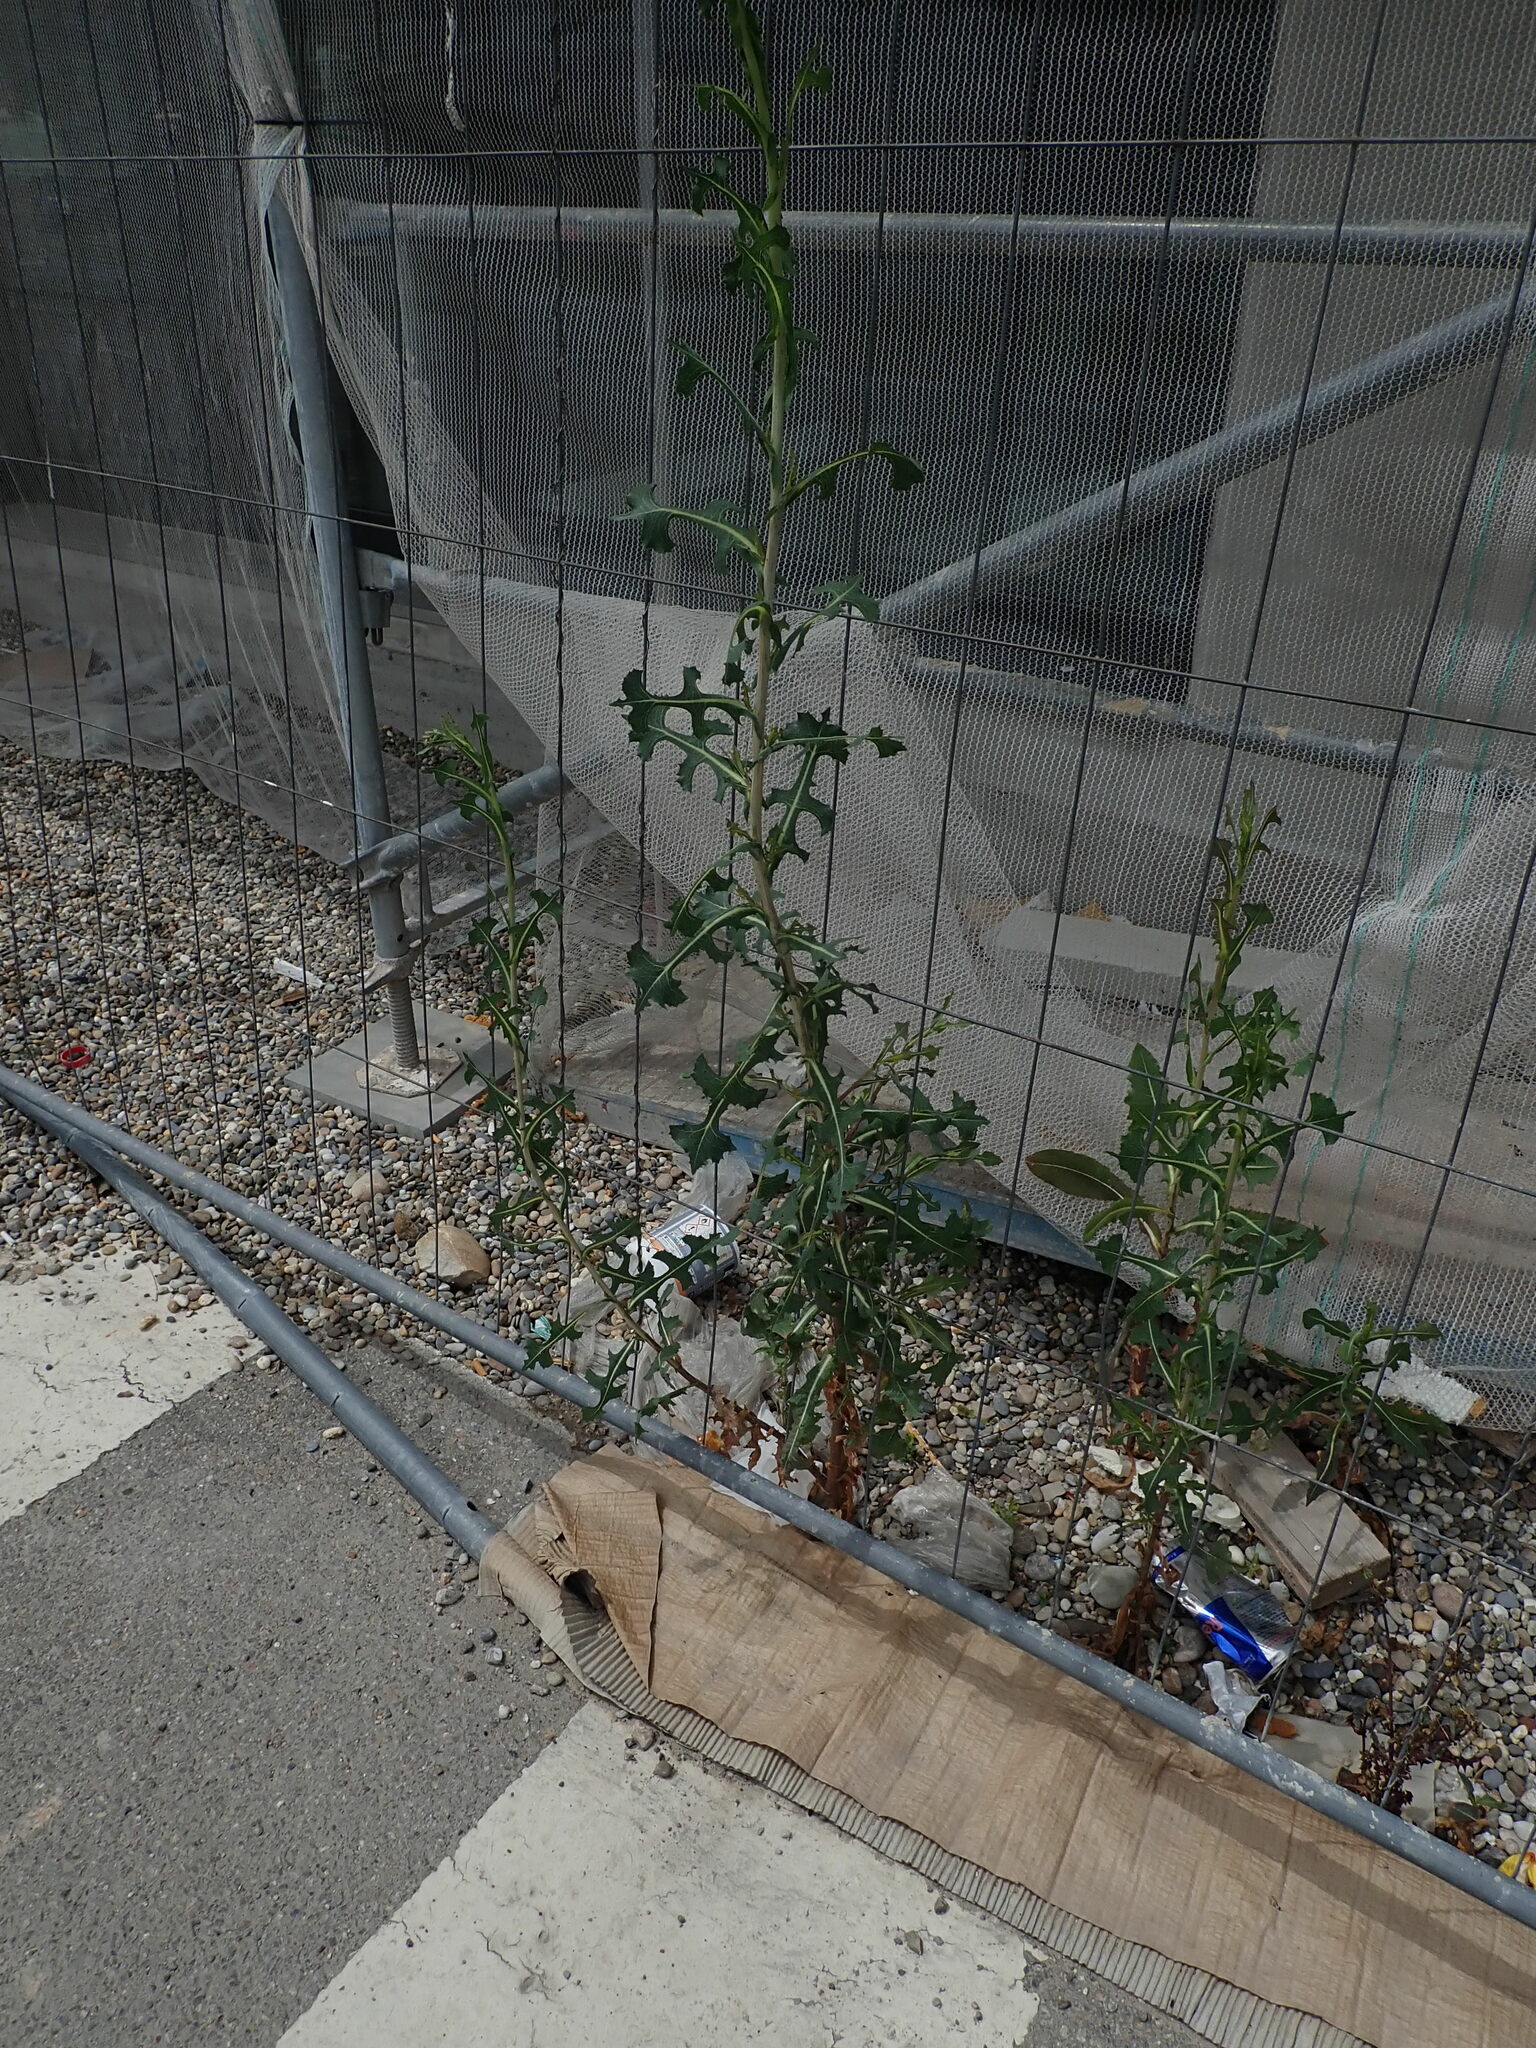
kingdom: Plantae
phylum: Tracheophyta
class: Magnoliopsida
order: Asterales
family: Asteraceae
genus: Lactuca
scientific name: Lactuca serriola
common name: Prickly lettuce
